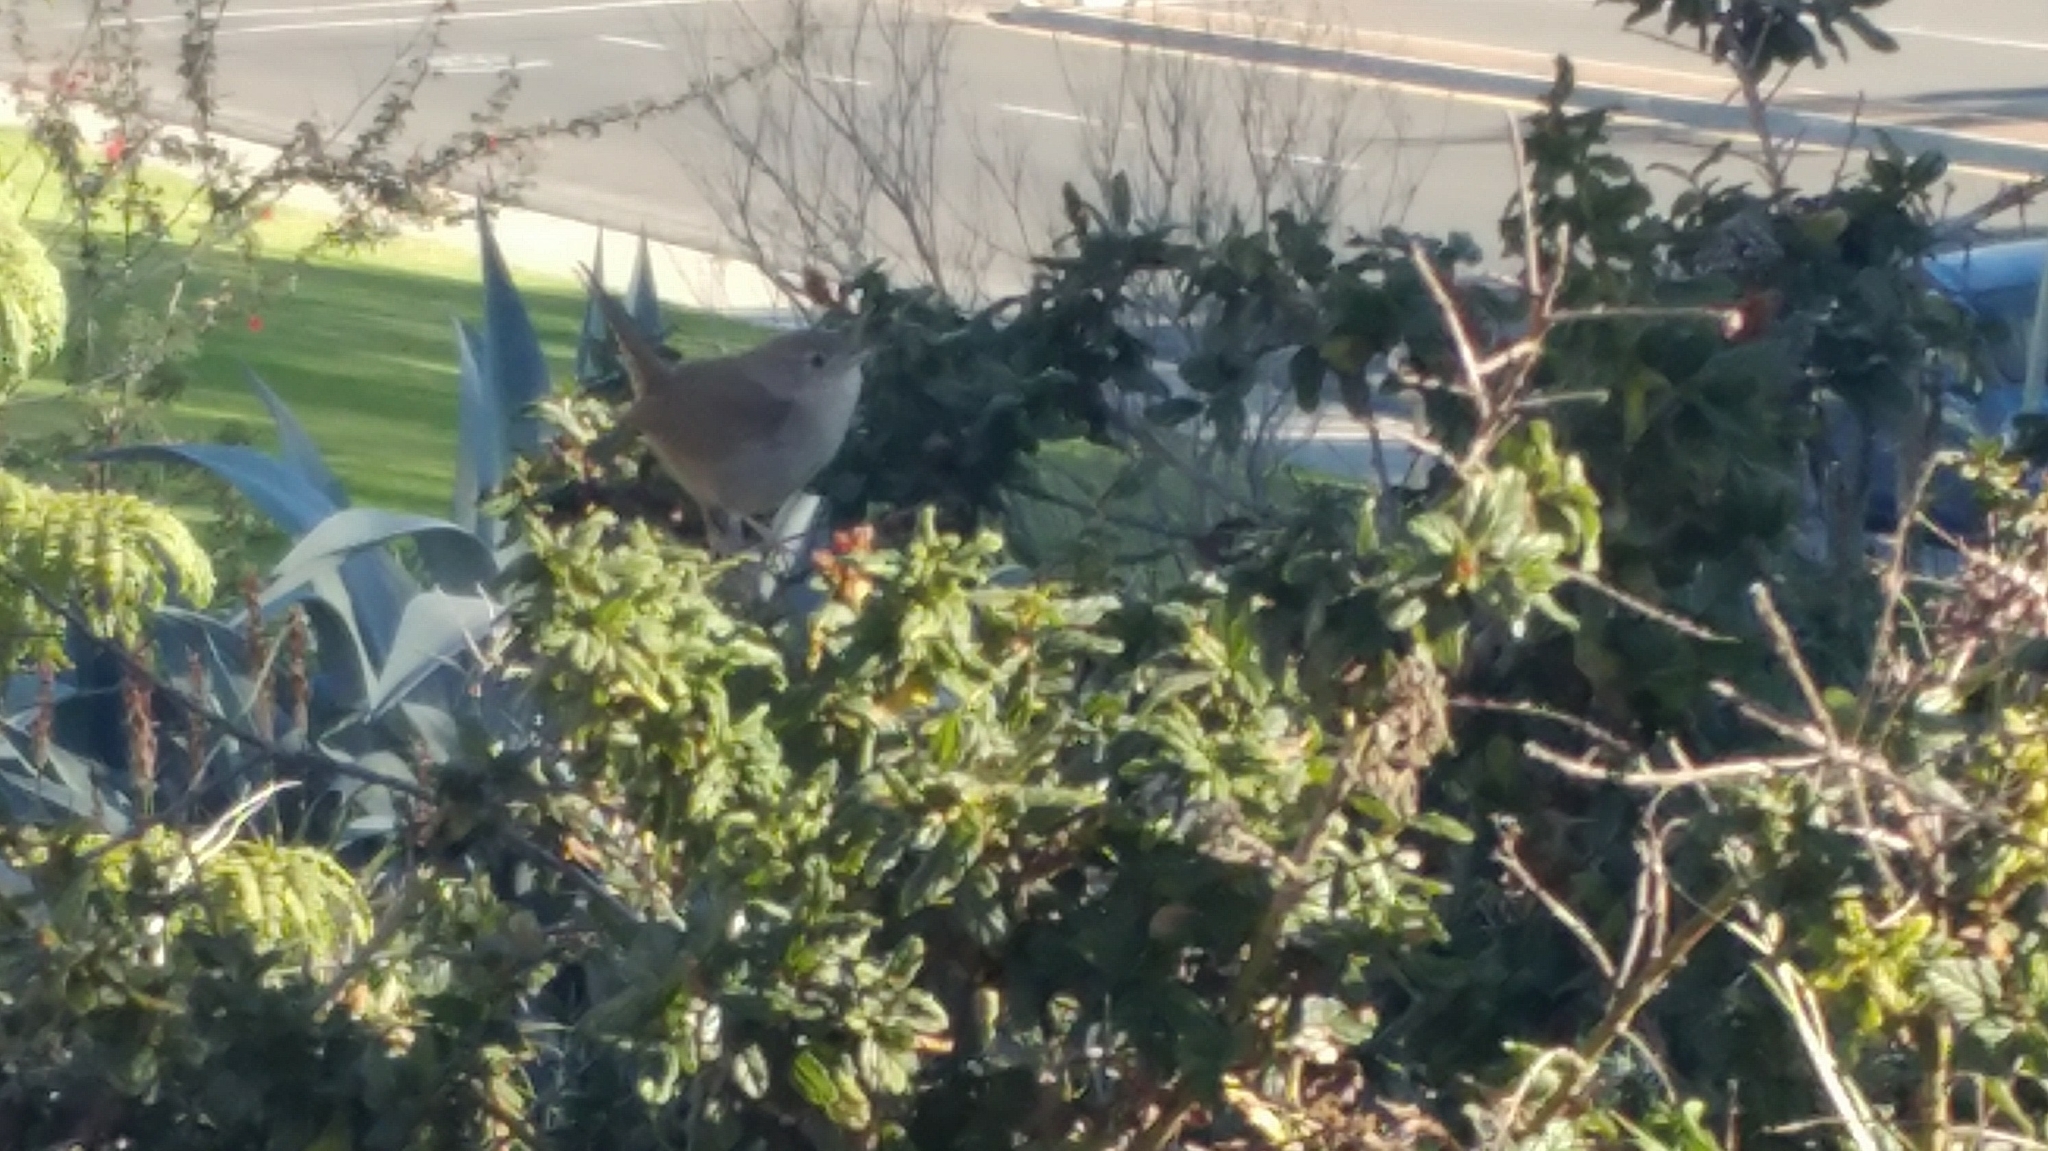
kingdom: Animalia
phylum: Chordata
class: Aves
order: Passeriformes
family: Troglodytidae
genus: Troglodytes
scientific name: Troglodytes aedon
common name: House wren
